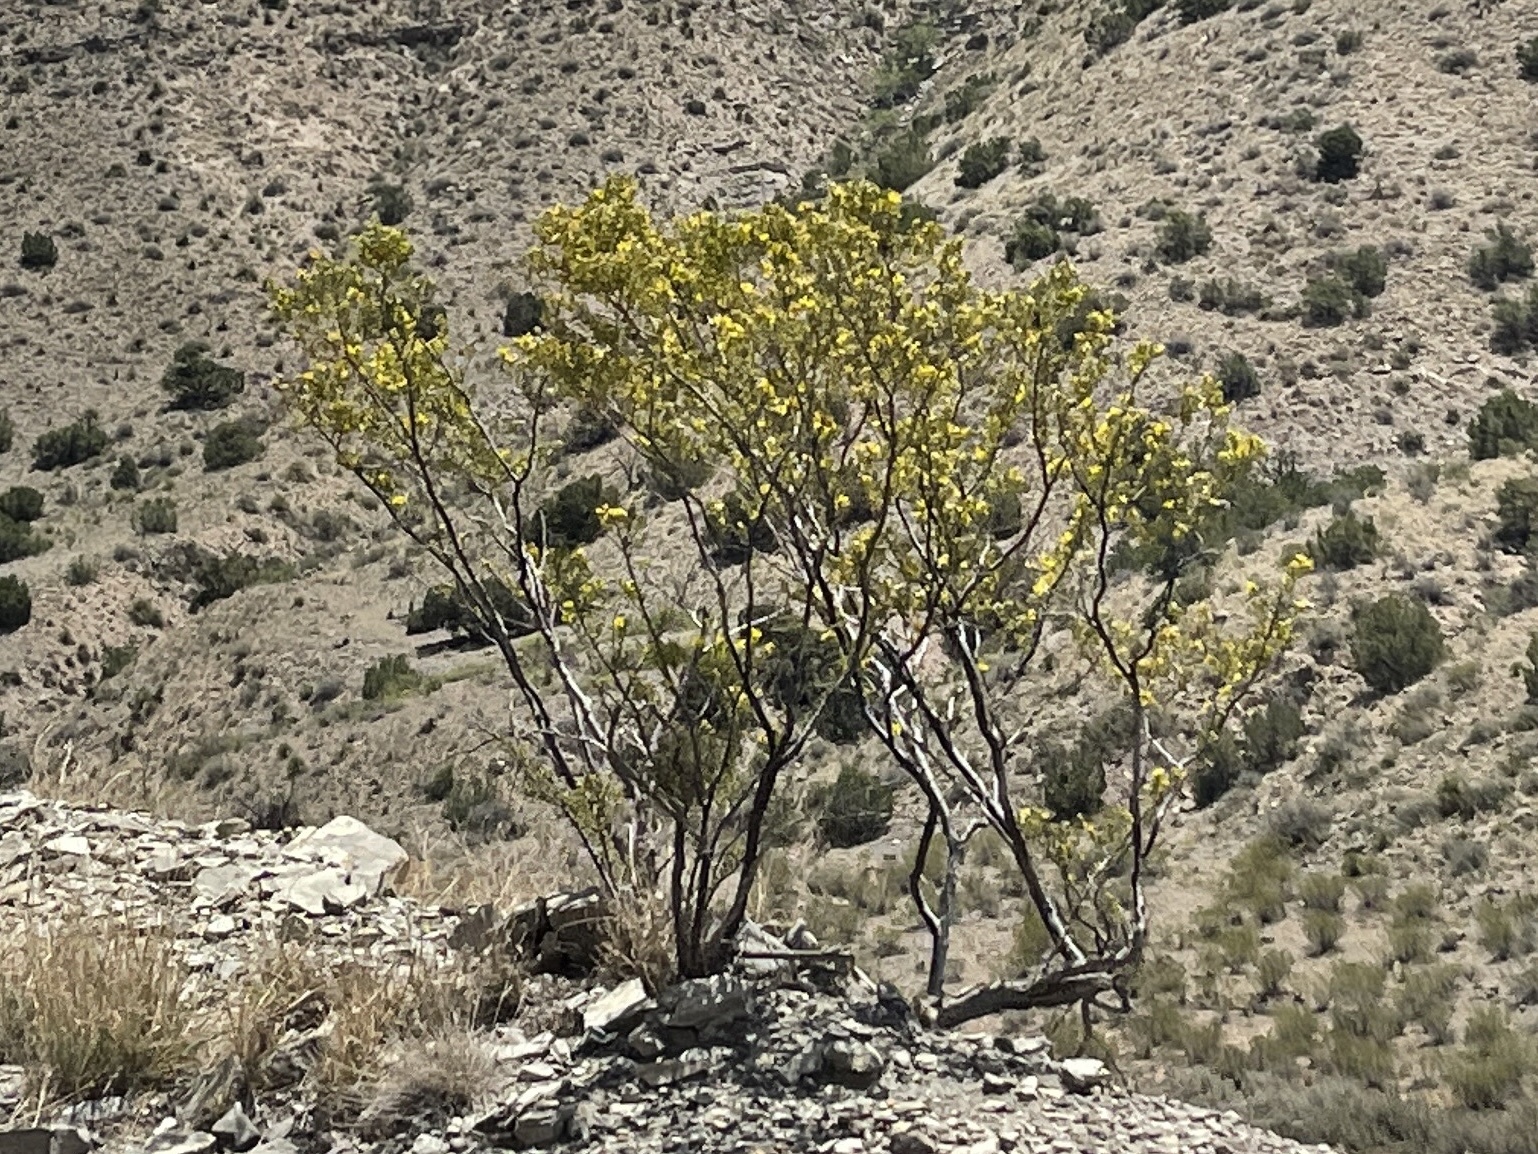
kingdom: Plantae
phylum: Tracheophyta
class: Magnoliopsida
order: Zygophyllales
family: Zygophyllaceae
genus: Larrea
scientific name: Larrea tridentata
